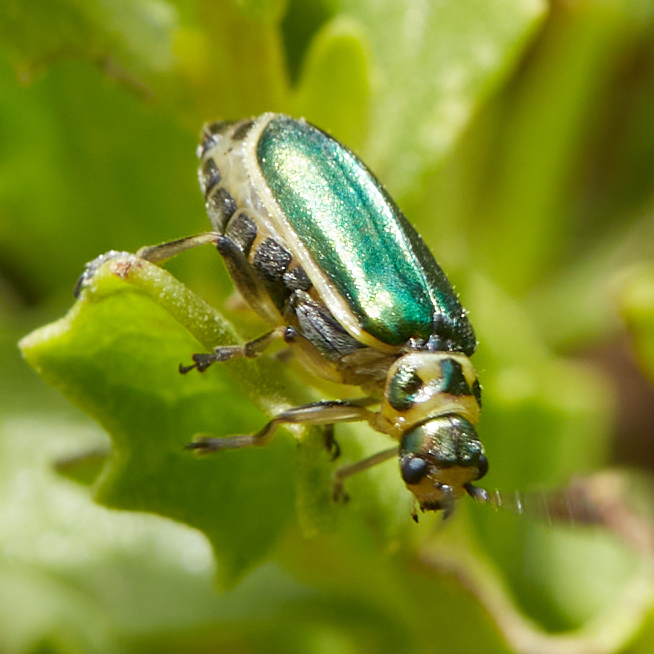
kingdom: Animalia
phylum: Arthropoda
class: Insecta
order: Coleoptera
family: Chrysomelidae
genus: Trirhabda
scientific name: Trirhabda flavolimbata
